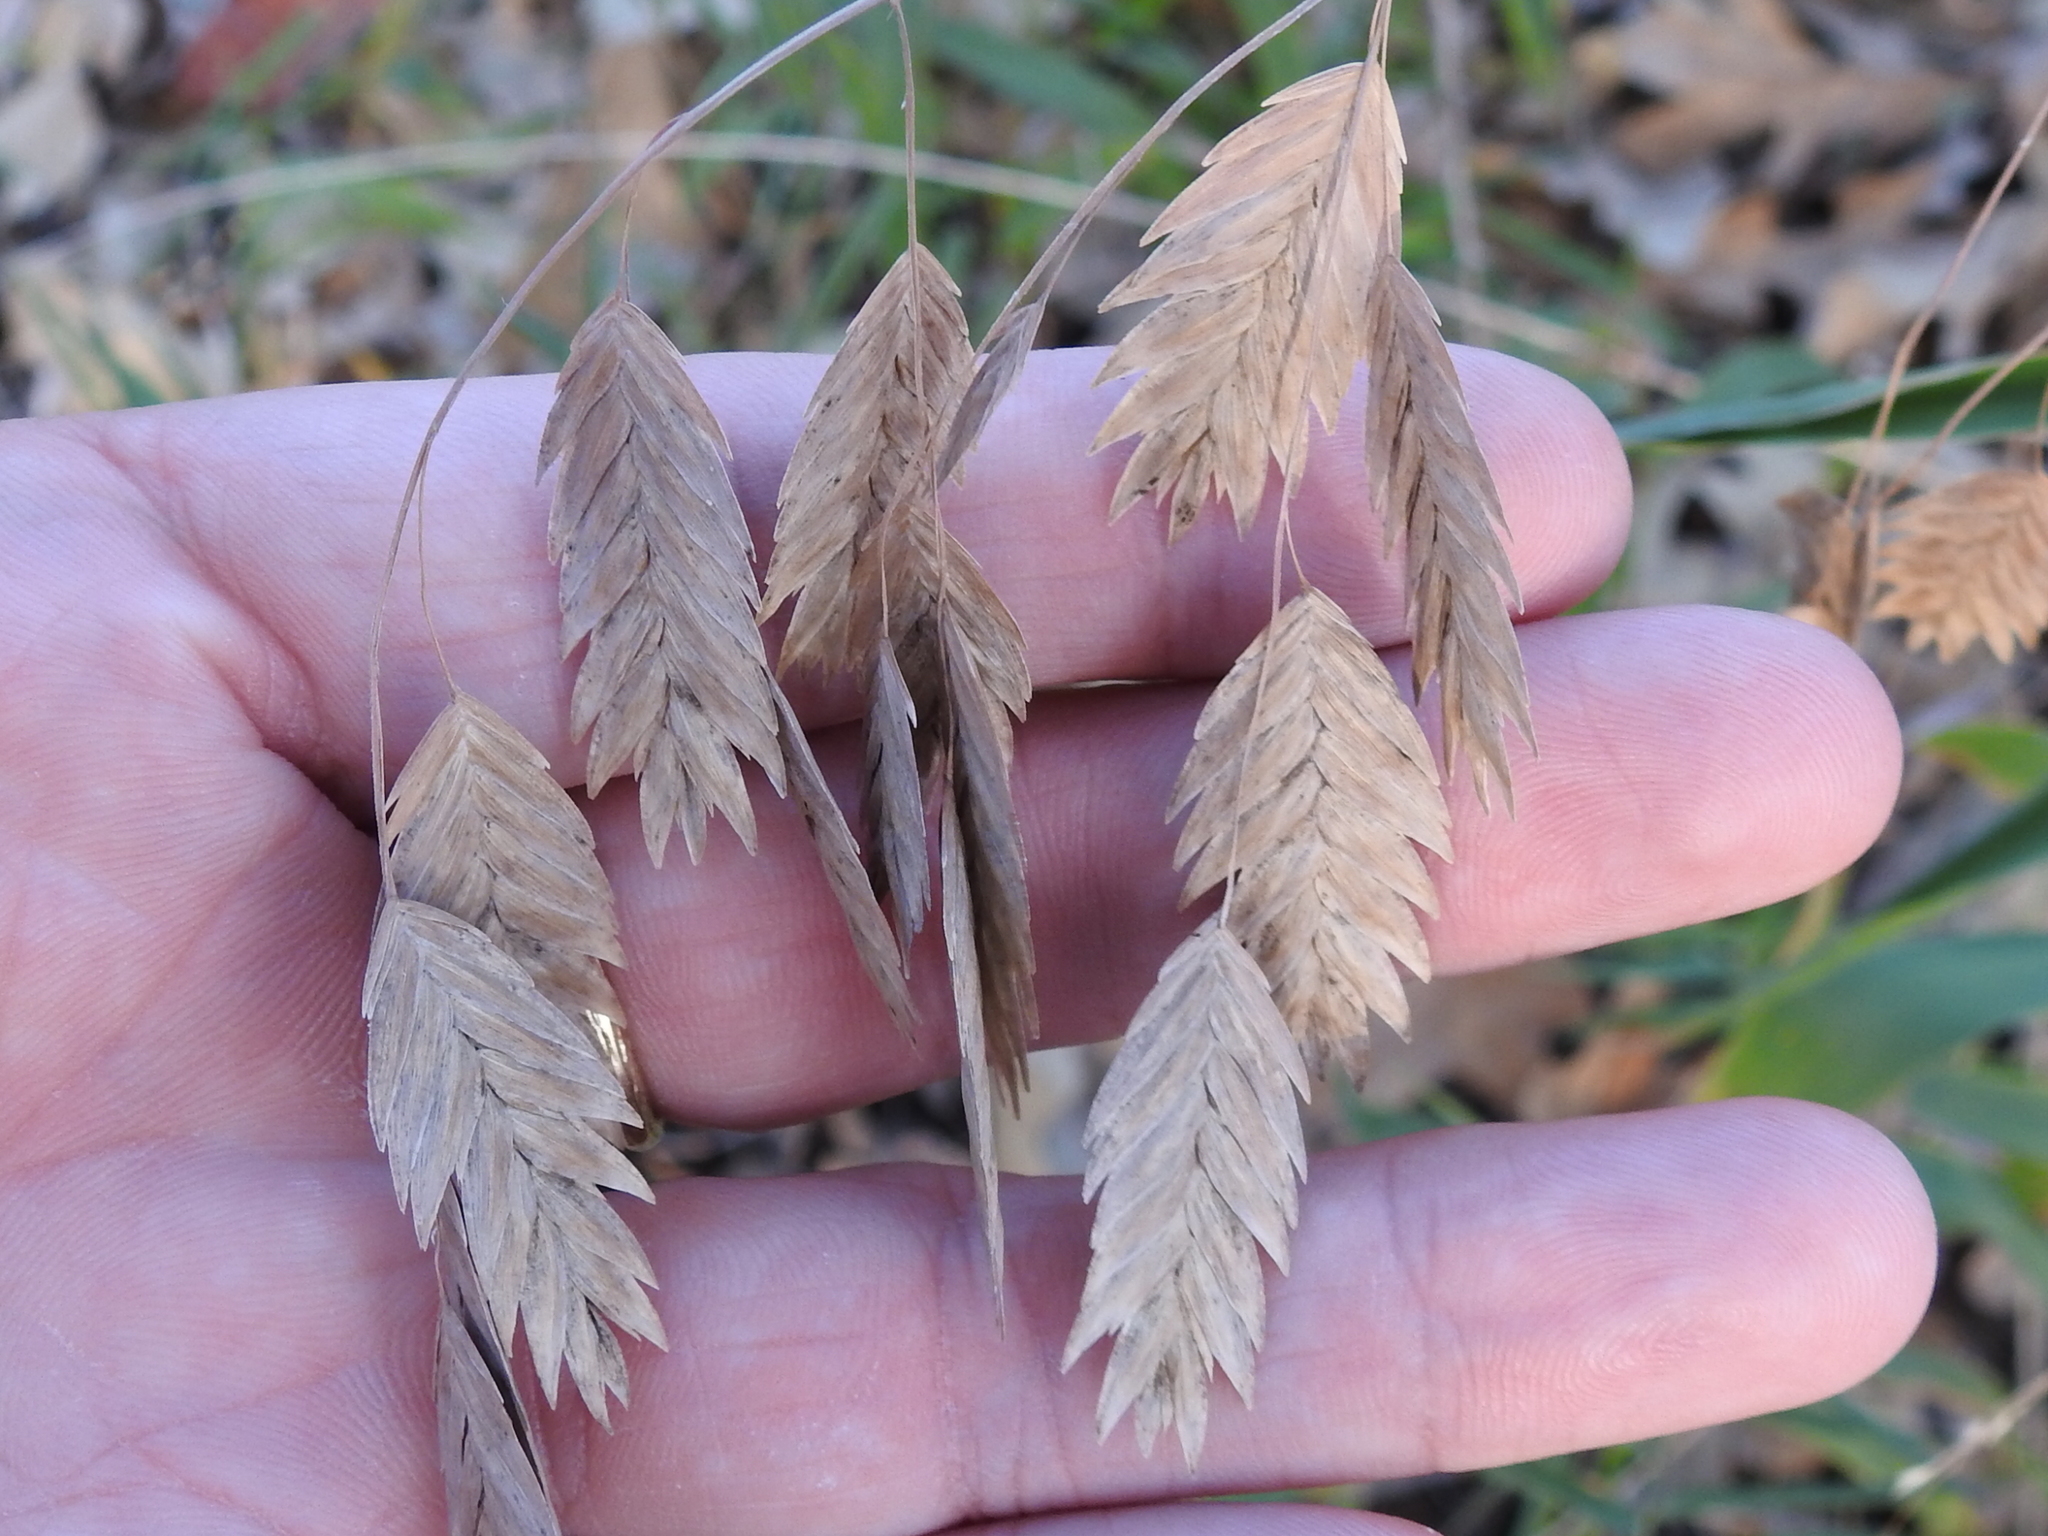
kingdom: Plantae
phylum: Tracheophyta
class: Liliopsida
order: Poales
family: Poaceae
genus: Chasmanthium
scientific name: Chasmanthium latifolium
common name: Broad-leaved chasmanthium
